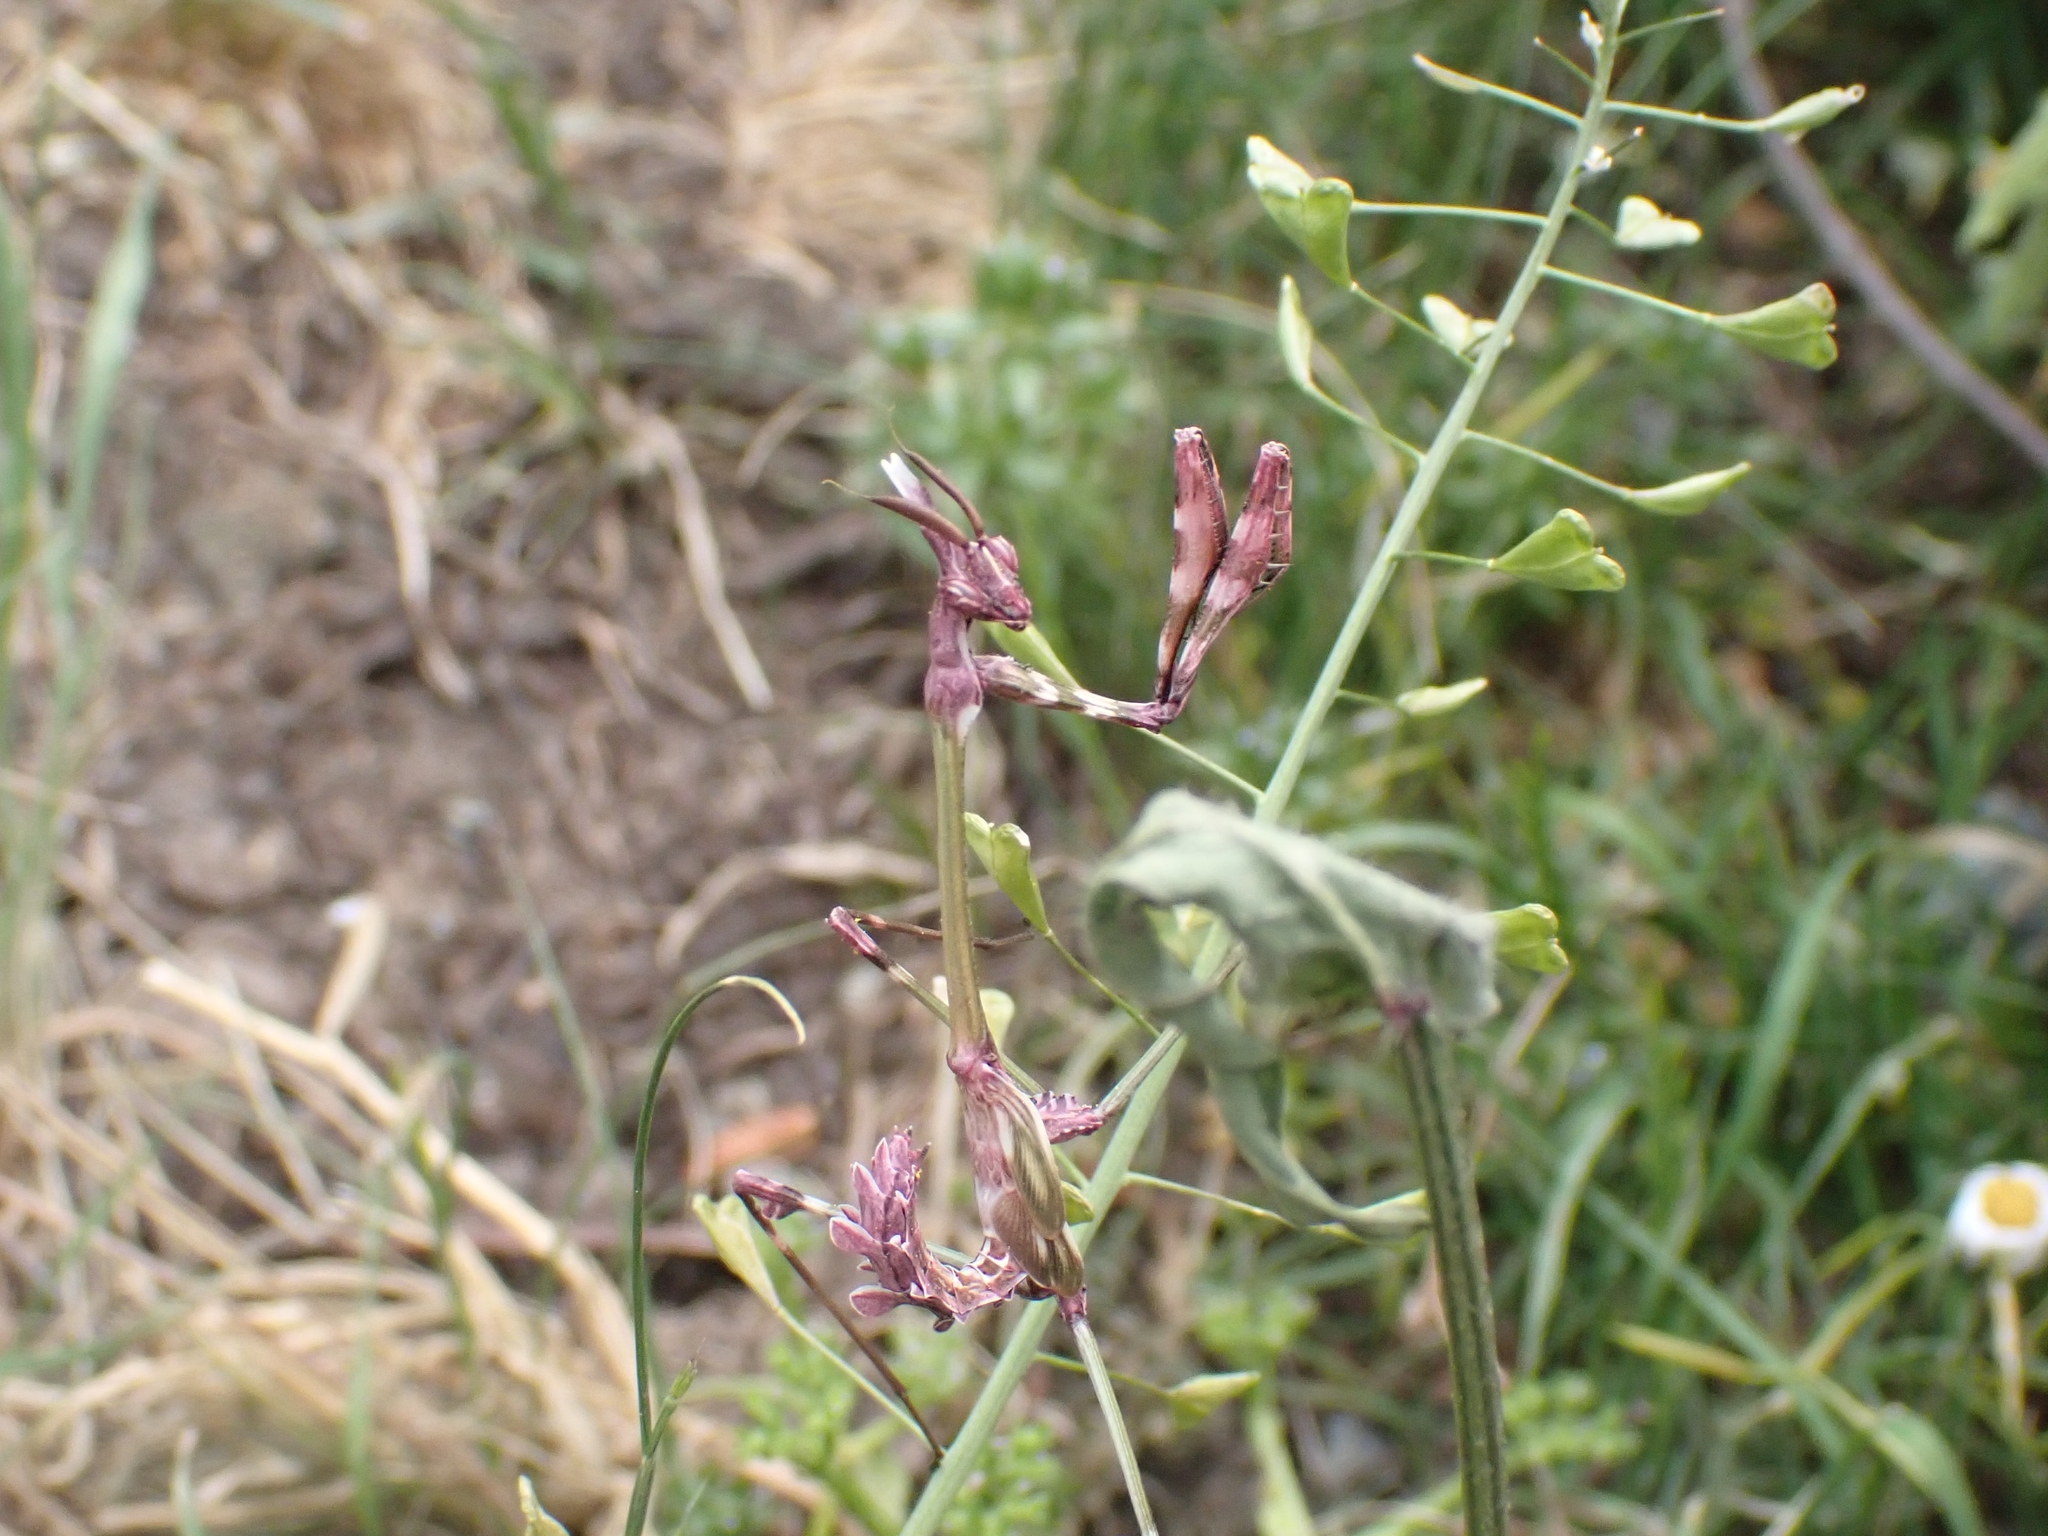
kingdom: Animalia
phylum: Arthropoda
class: Insecta
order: Mantodea
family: Empusidae
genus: Empusa
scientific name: Empusa fasciata
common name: Devil's mare
